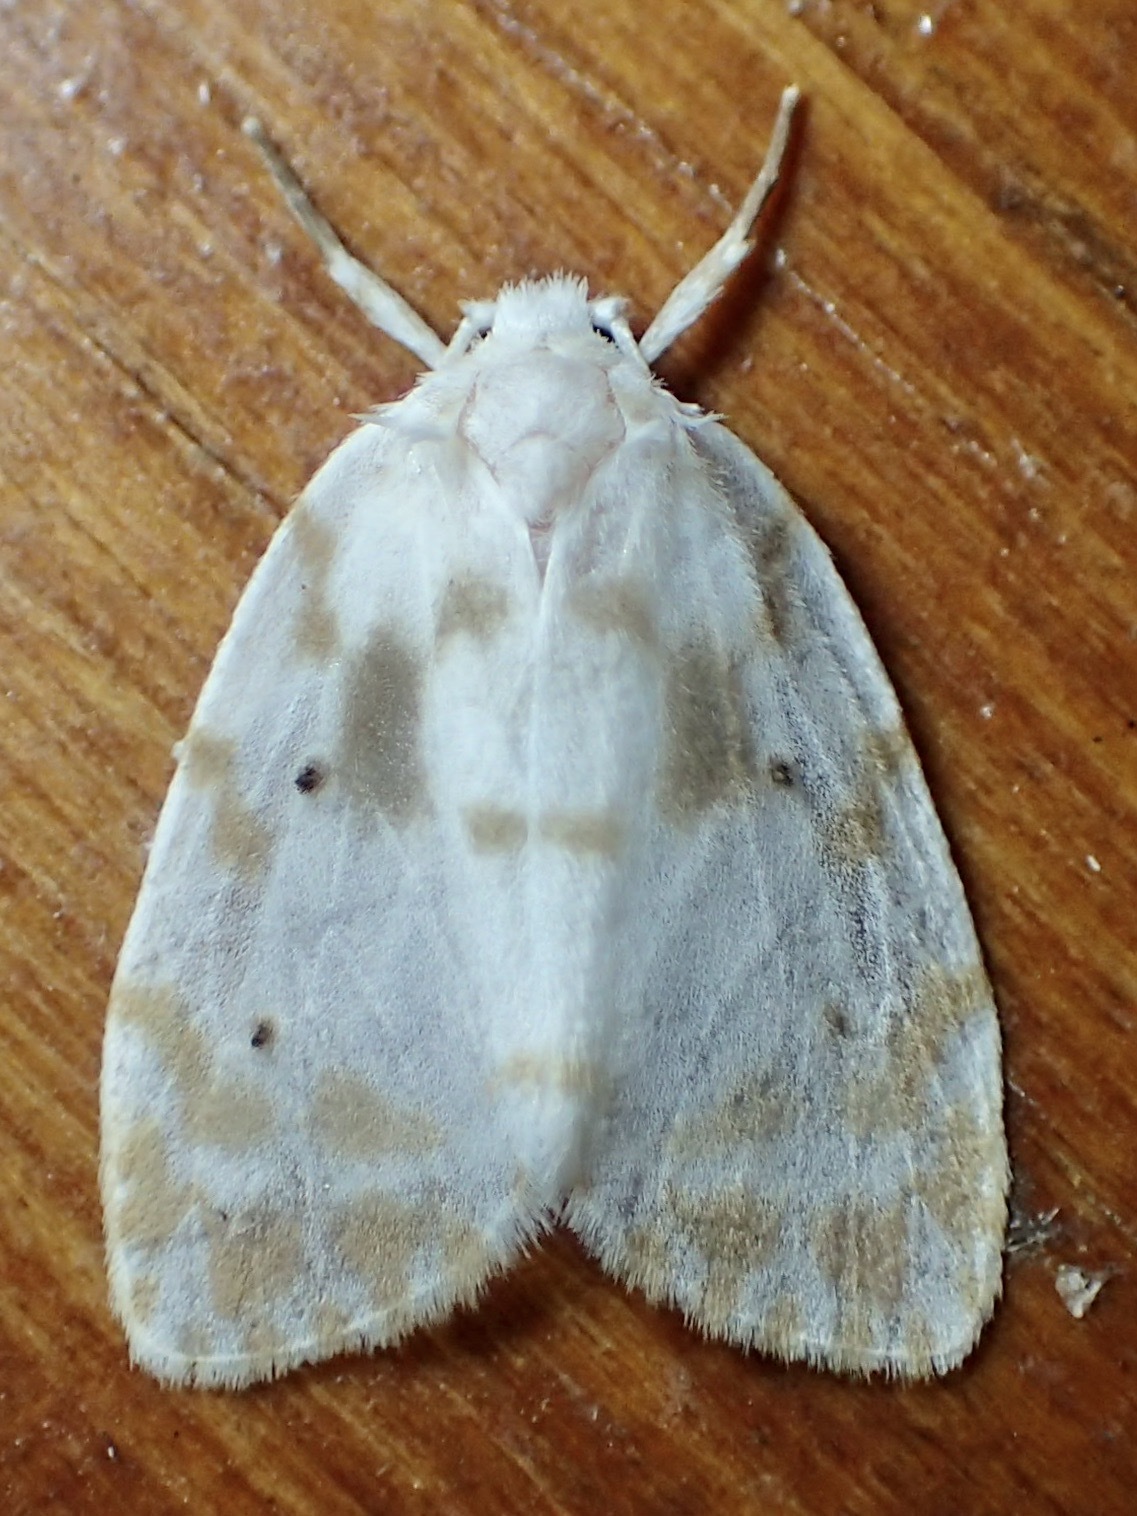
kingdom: Animalia
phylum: Arthropoda
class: Insecta
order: Lepidoptera
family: Erebidae
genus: Schistophleps
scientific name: Schistophleps albida
